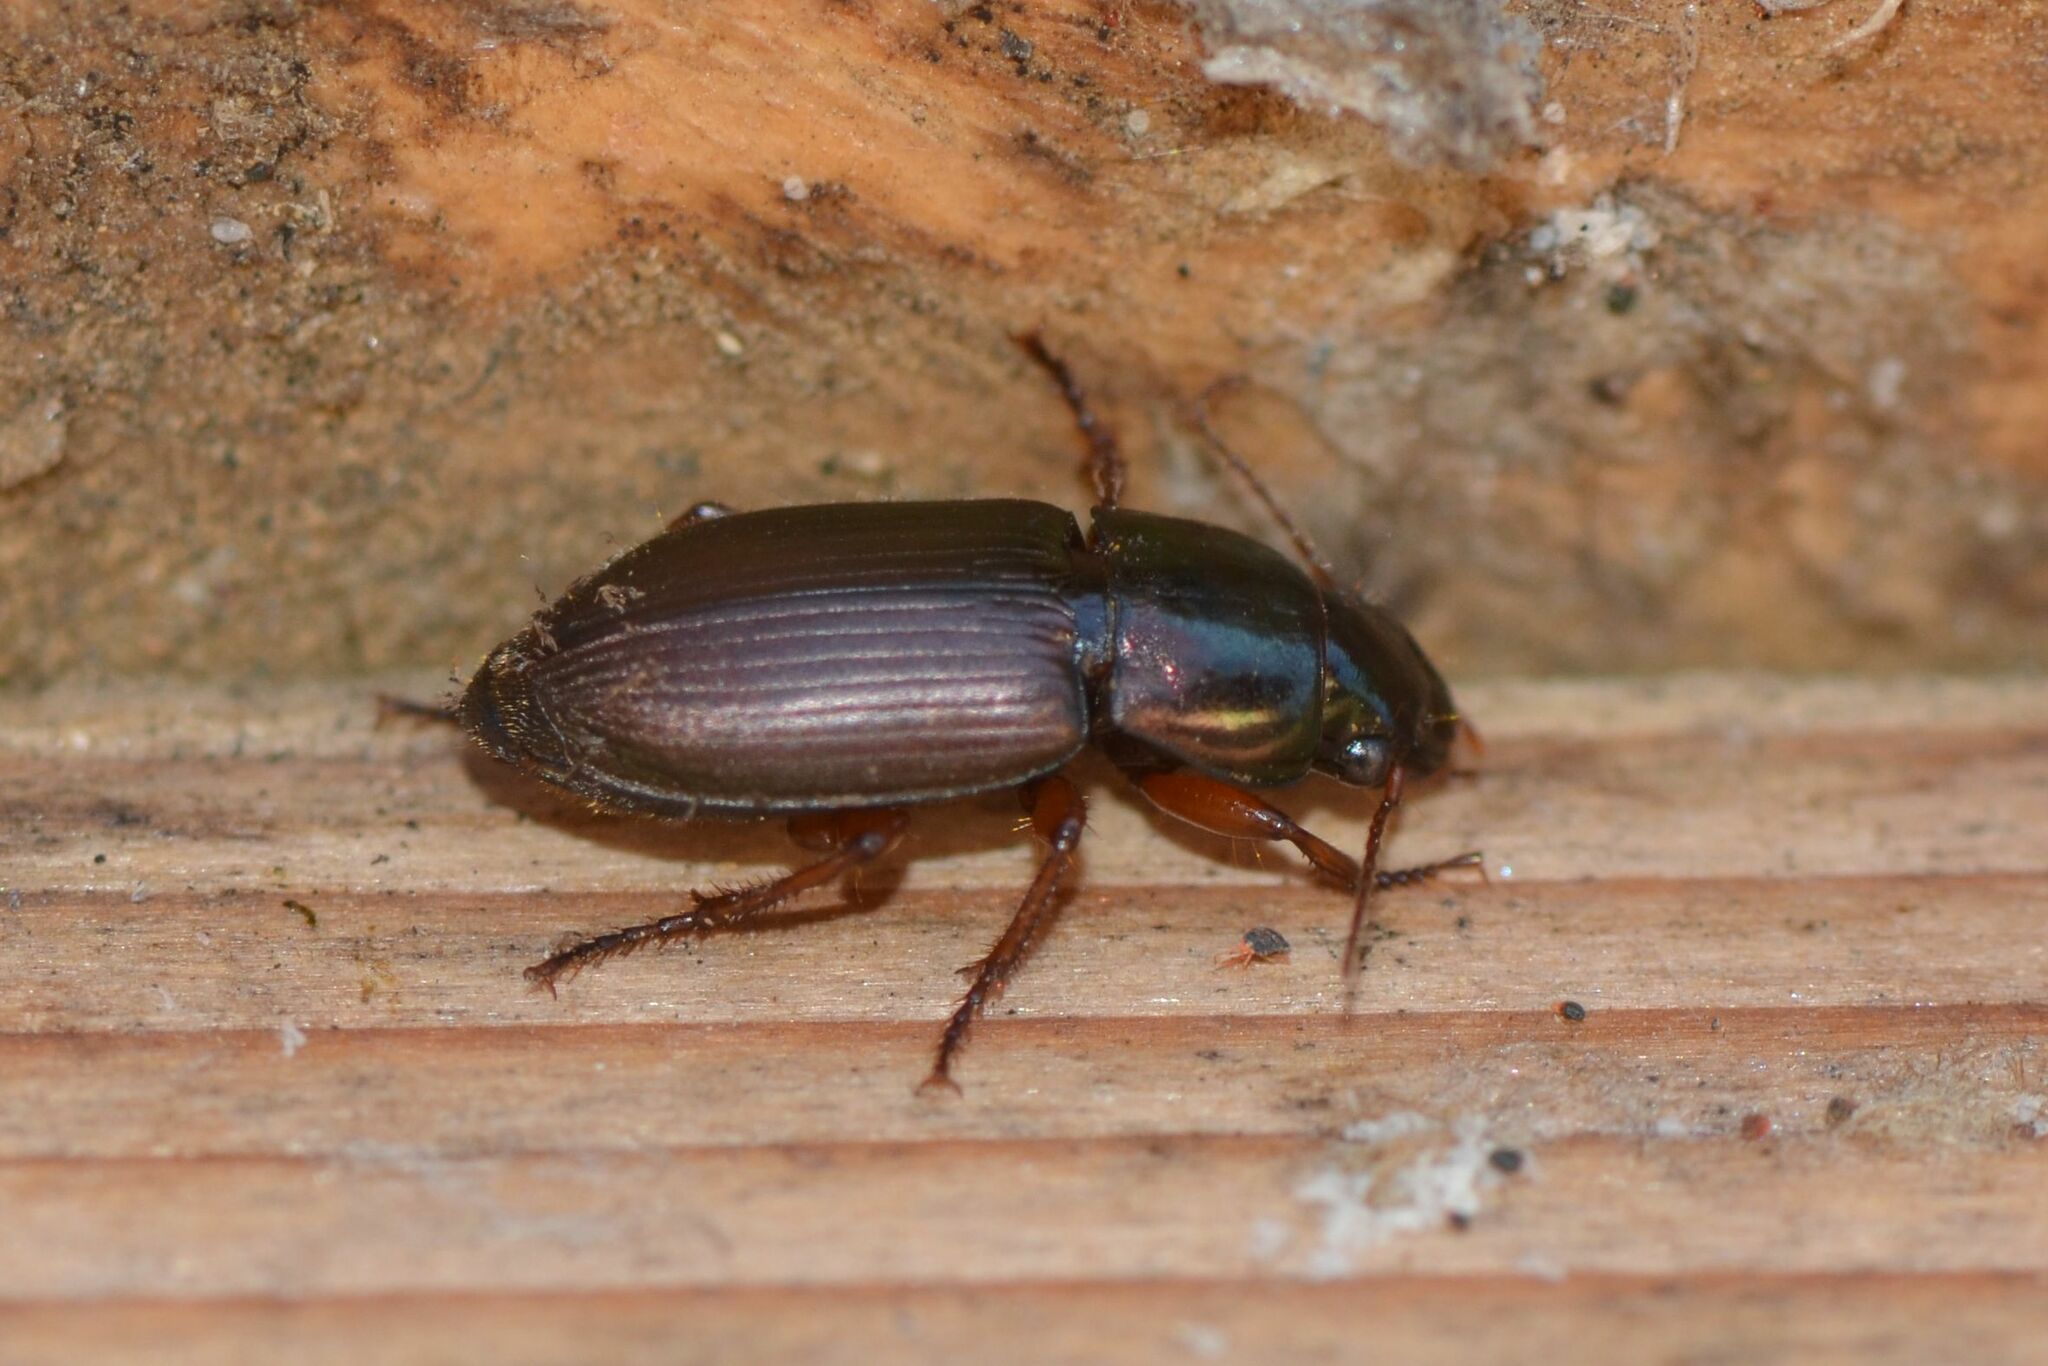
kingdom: Animalia
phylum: Arthropoda
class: Insecta
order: Coleoptera
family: Carabidae
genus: Harpalus
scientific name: Harpalus affinis
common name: Polychrome harp ground beetle
